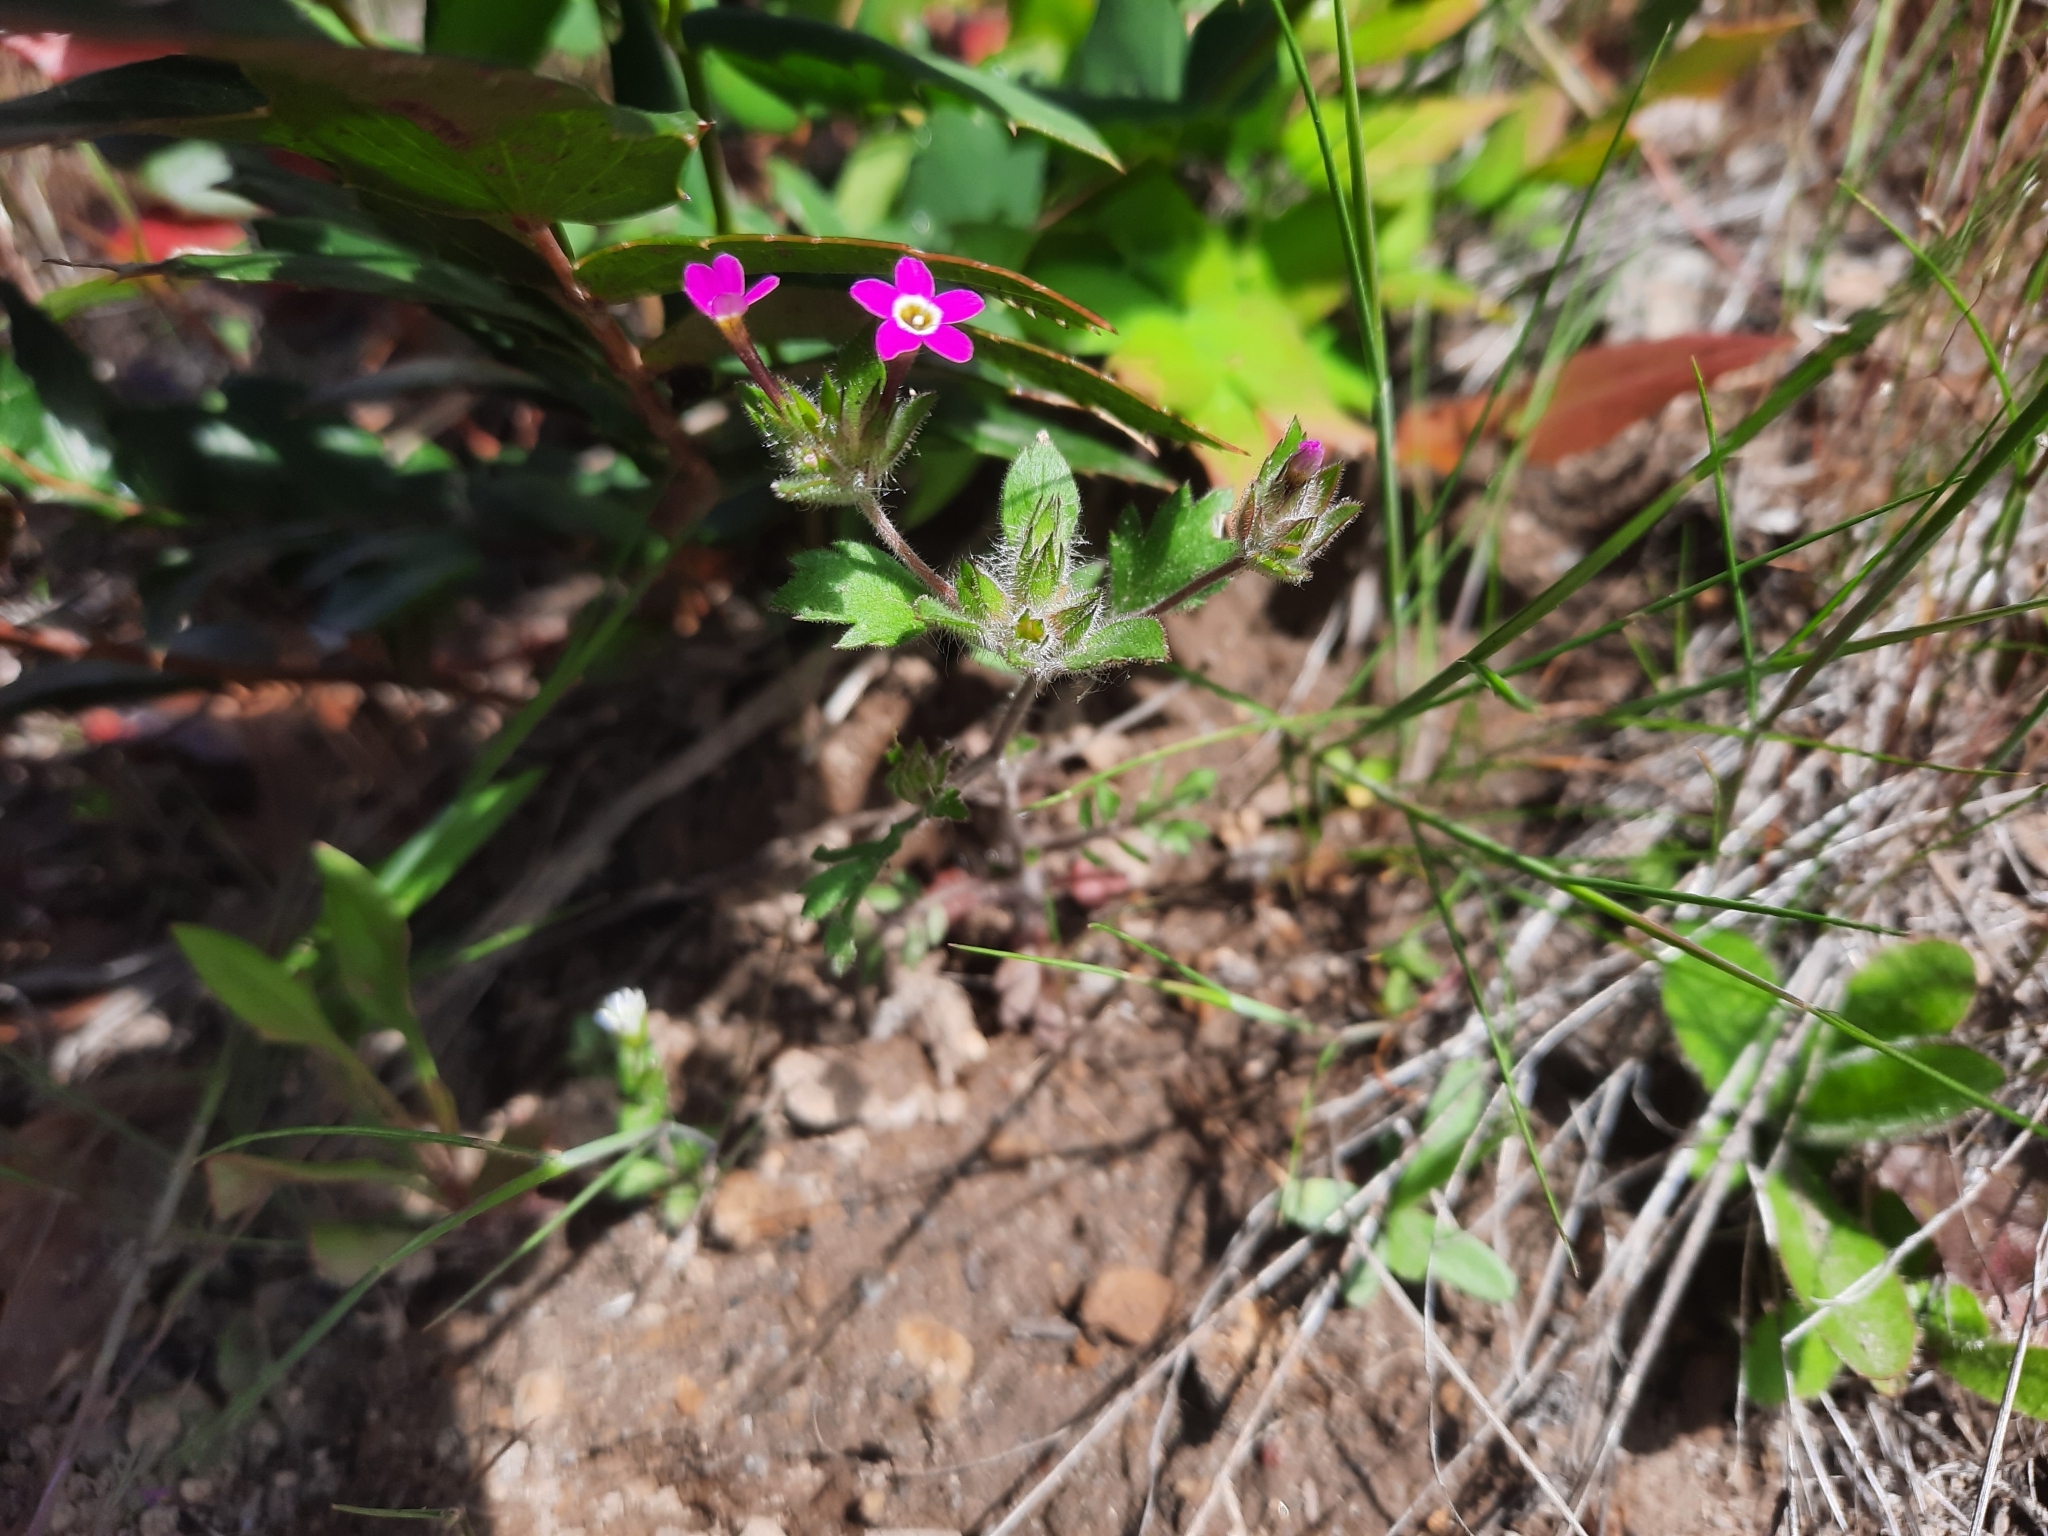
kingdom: Plantae
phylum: Tracheophyta
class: Magnoliopsida
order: Ericales
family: Polemoniaceae
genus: Collomia
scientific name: Collomia heterophylla
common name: Variable-leaved collomia
